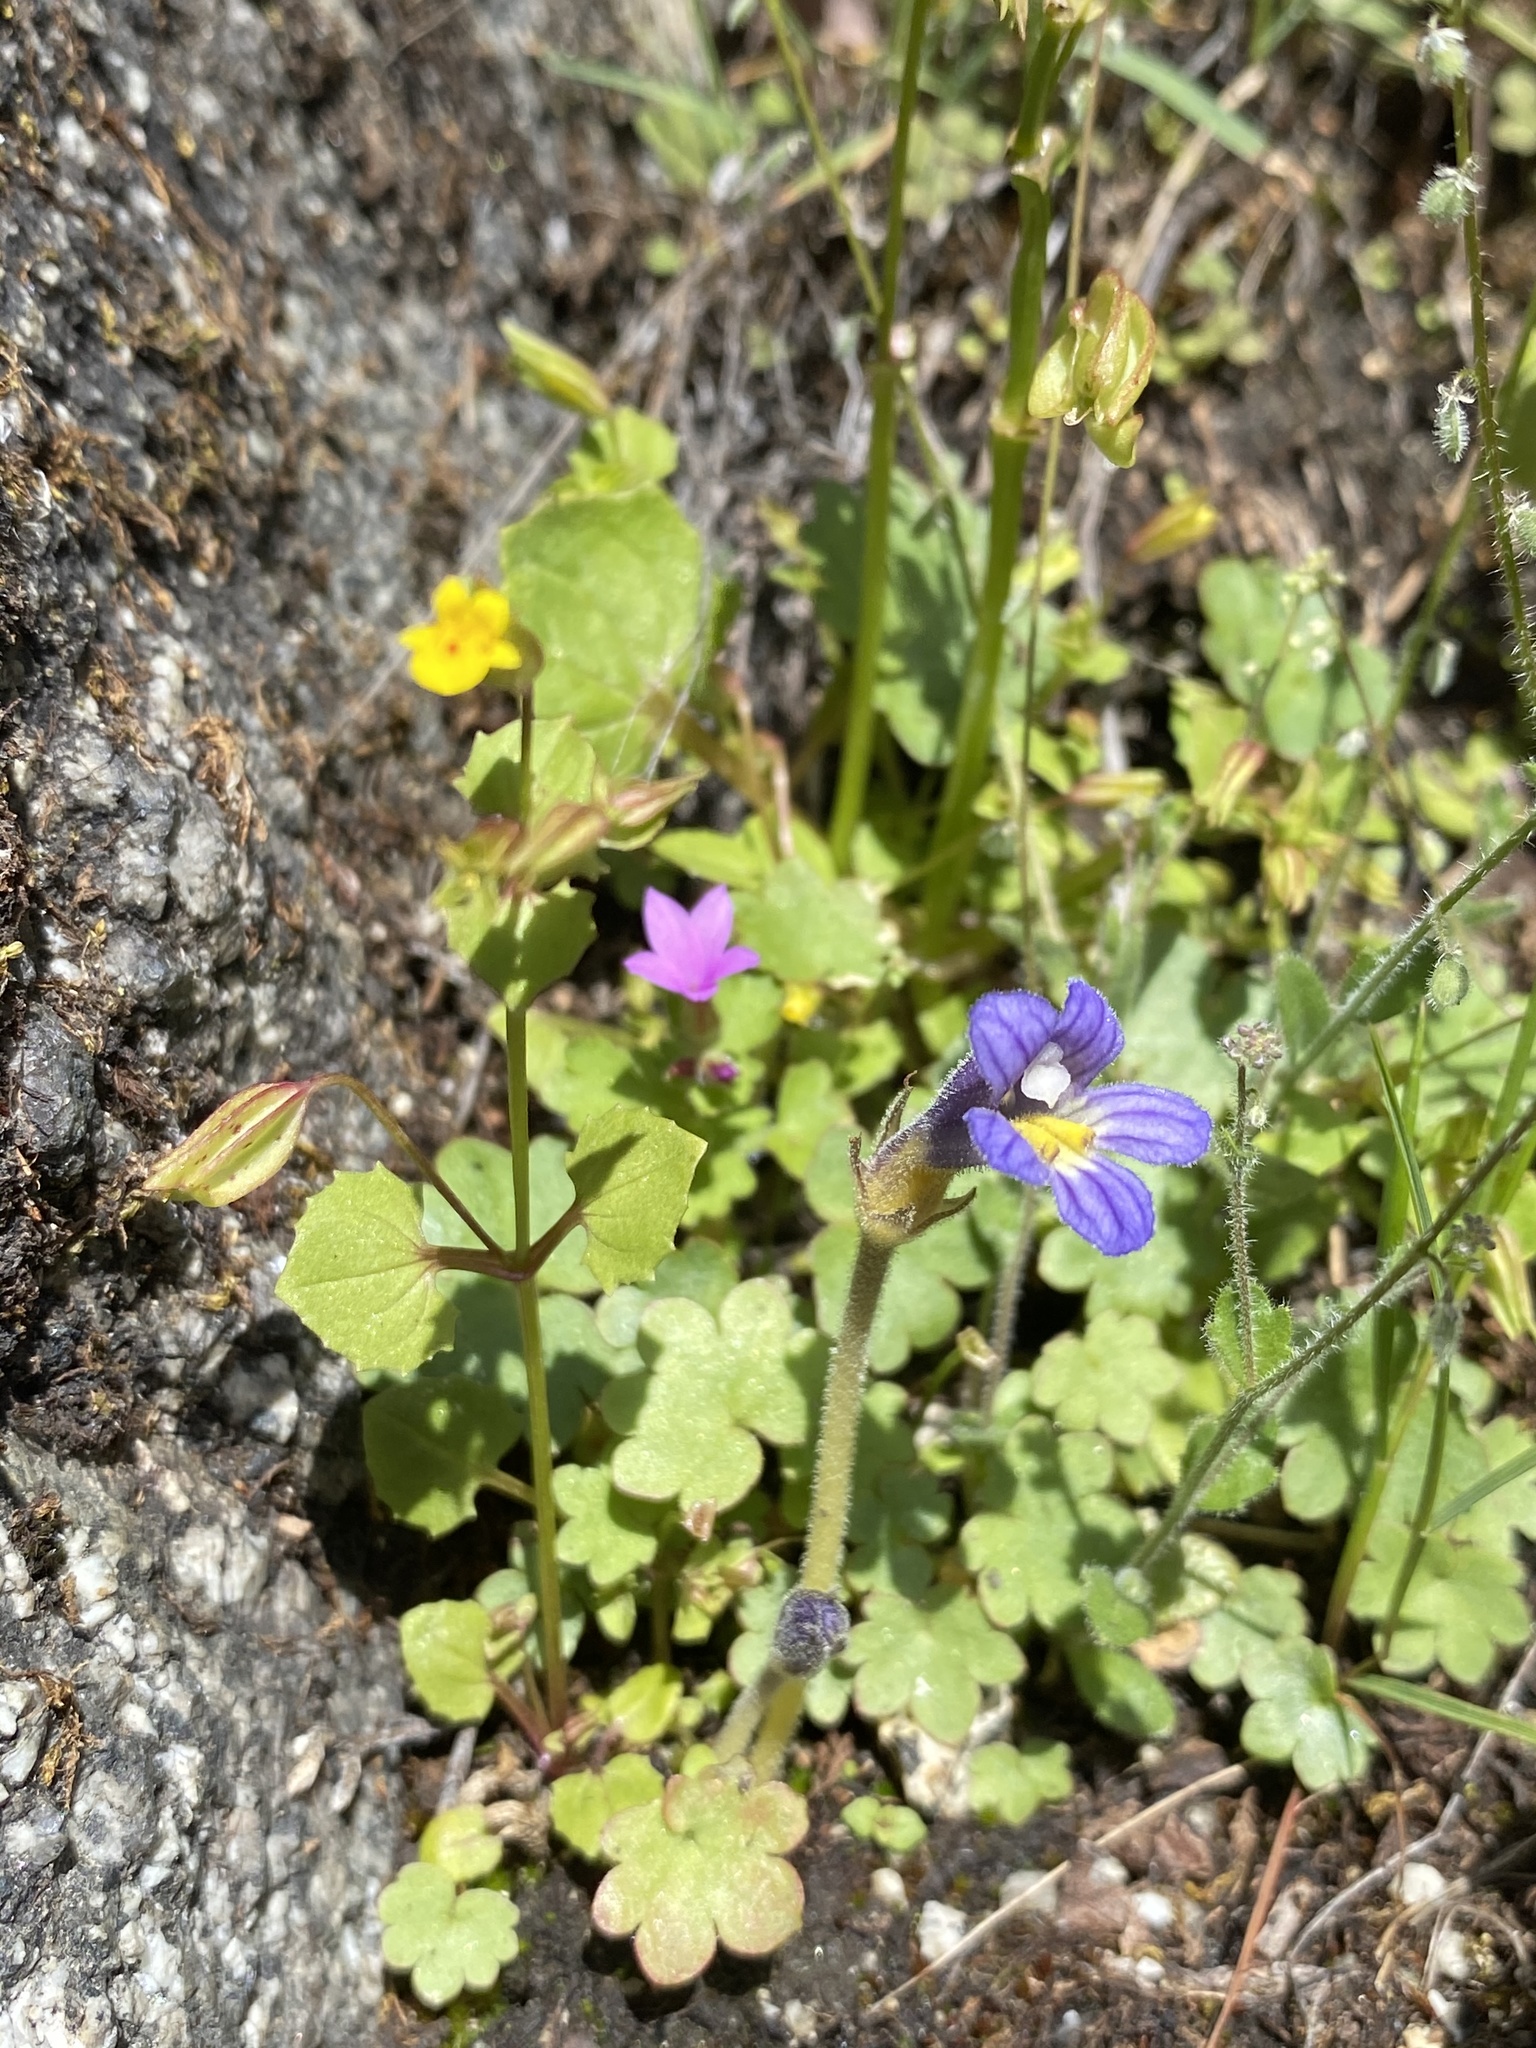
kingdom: Plantae
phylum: Tracheophyta
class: Magnoliopsida
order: Lamiales
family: Orobanchaceae
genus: Aphyllon
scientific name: Aphyllon uniflorum
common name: One-flowered broomrape
